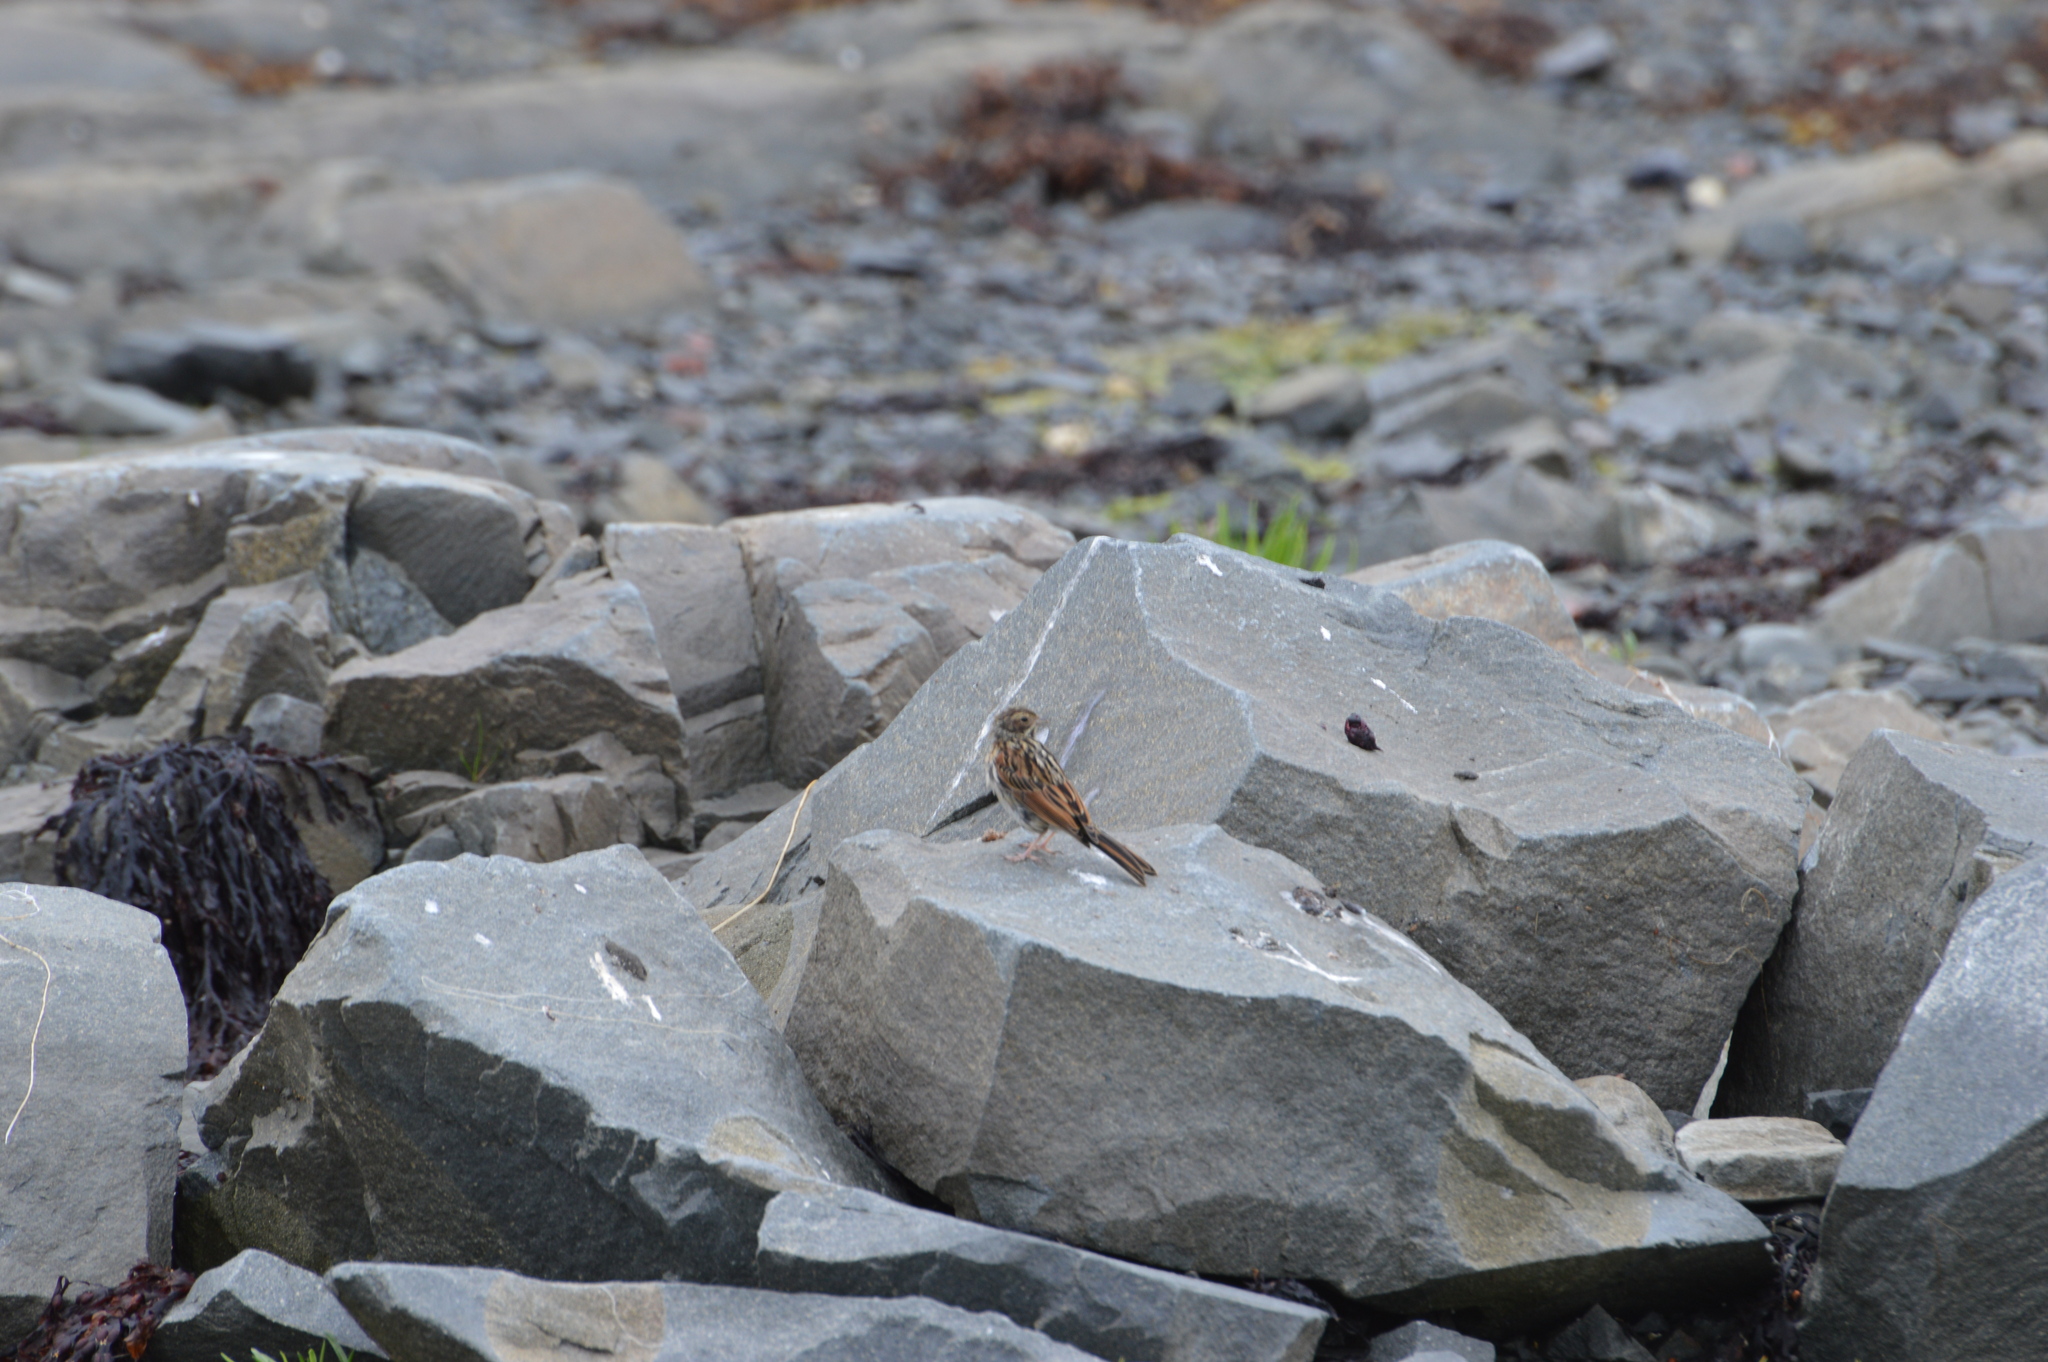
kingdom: Animalia
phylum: Chordata
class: Aves
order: Passeriformes
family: Emberizidae
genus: Emberiza
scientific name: Emberiza schoeniclus
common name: Reed bunting
